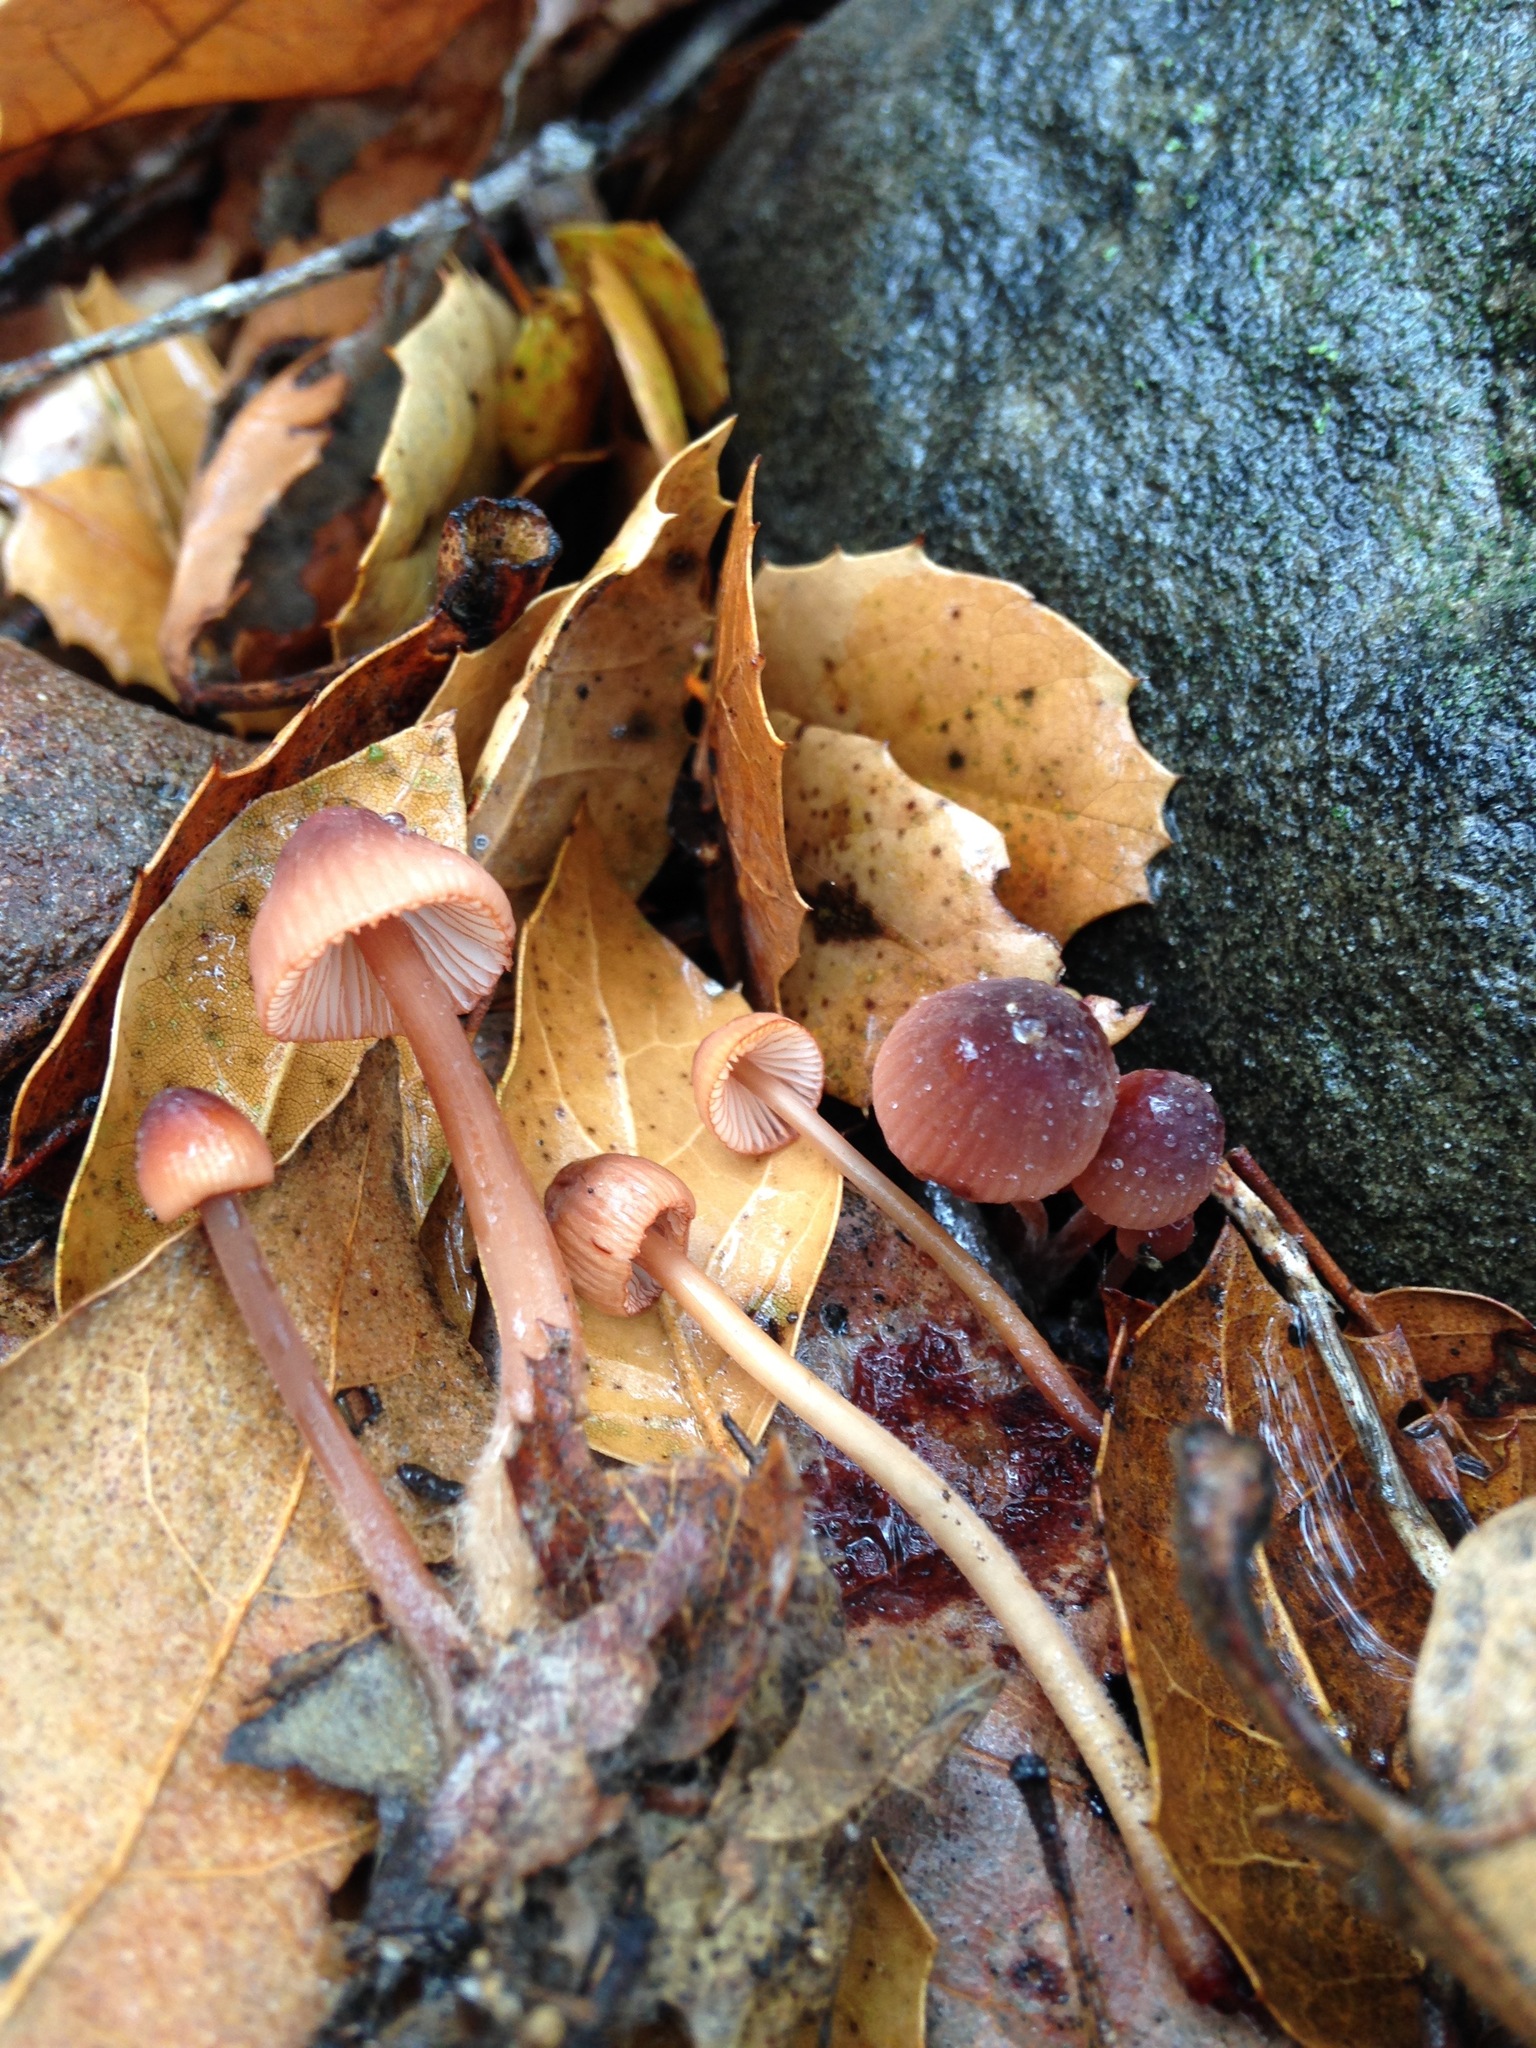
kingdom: Fungi
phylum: Basidiomycota
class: Agaricomycetes
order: Agaricales
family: Mycenaceae
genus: Mycena
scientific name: Mycena
